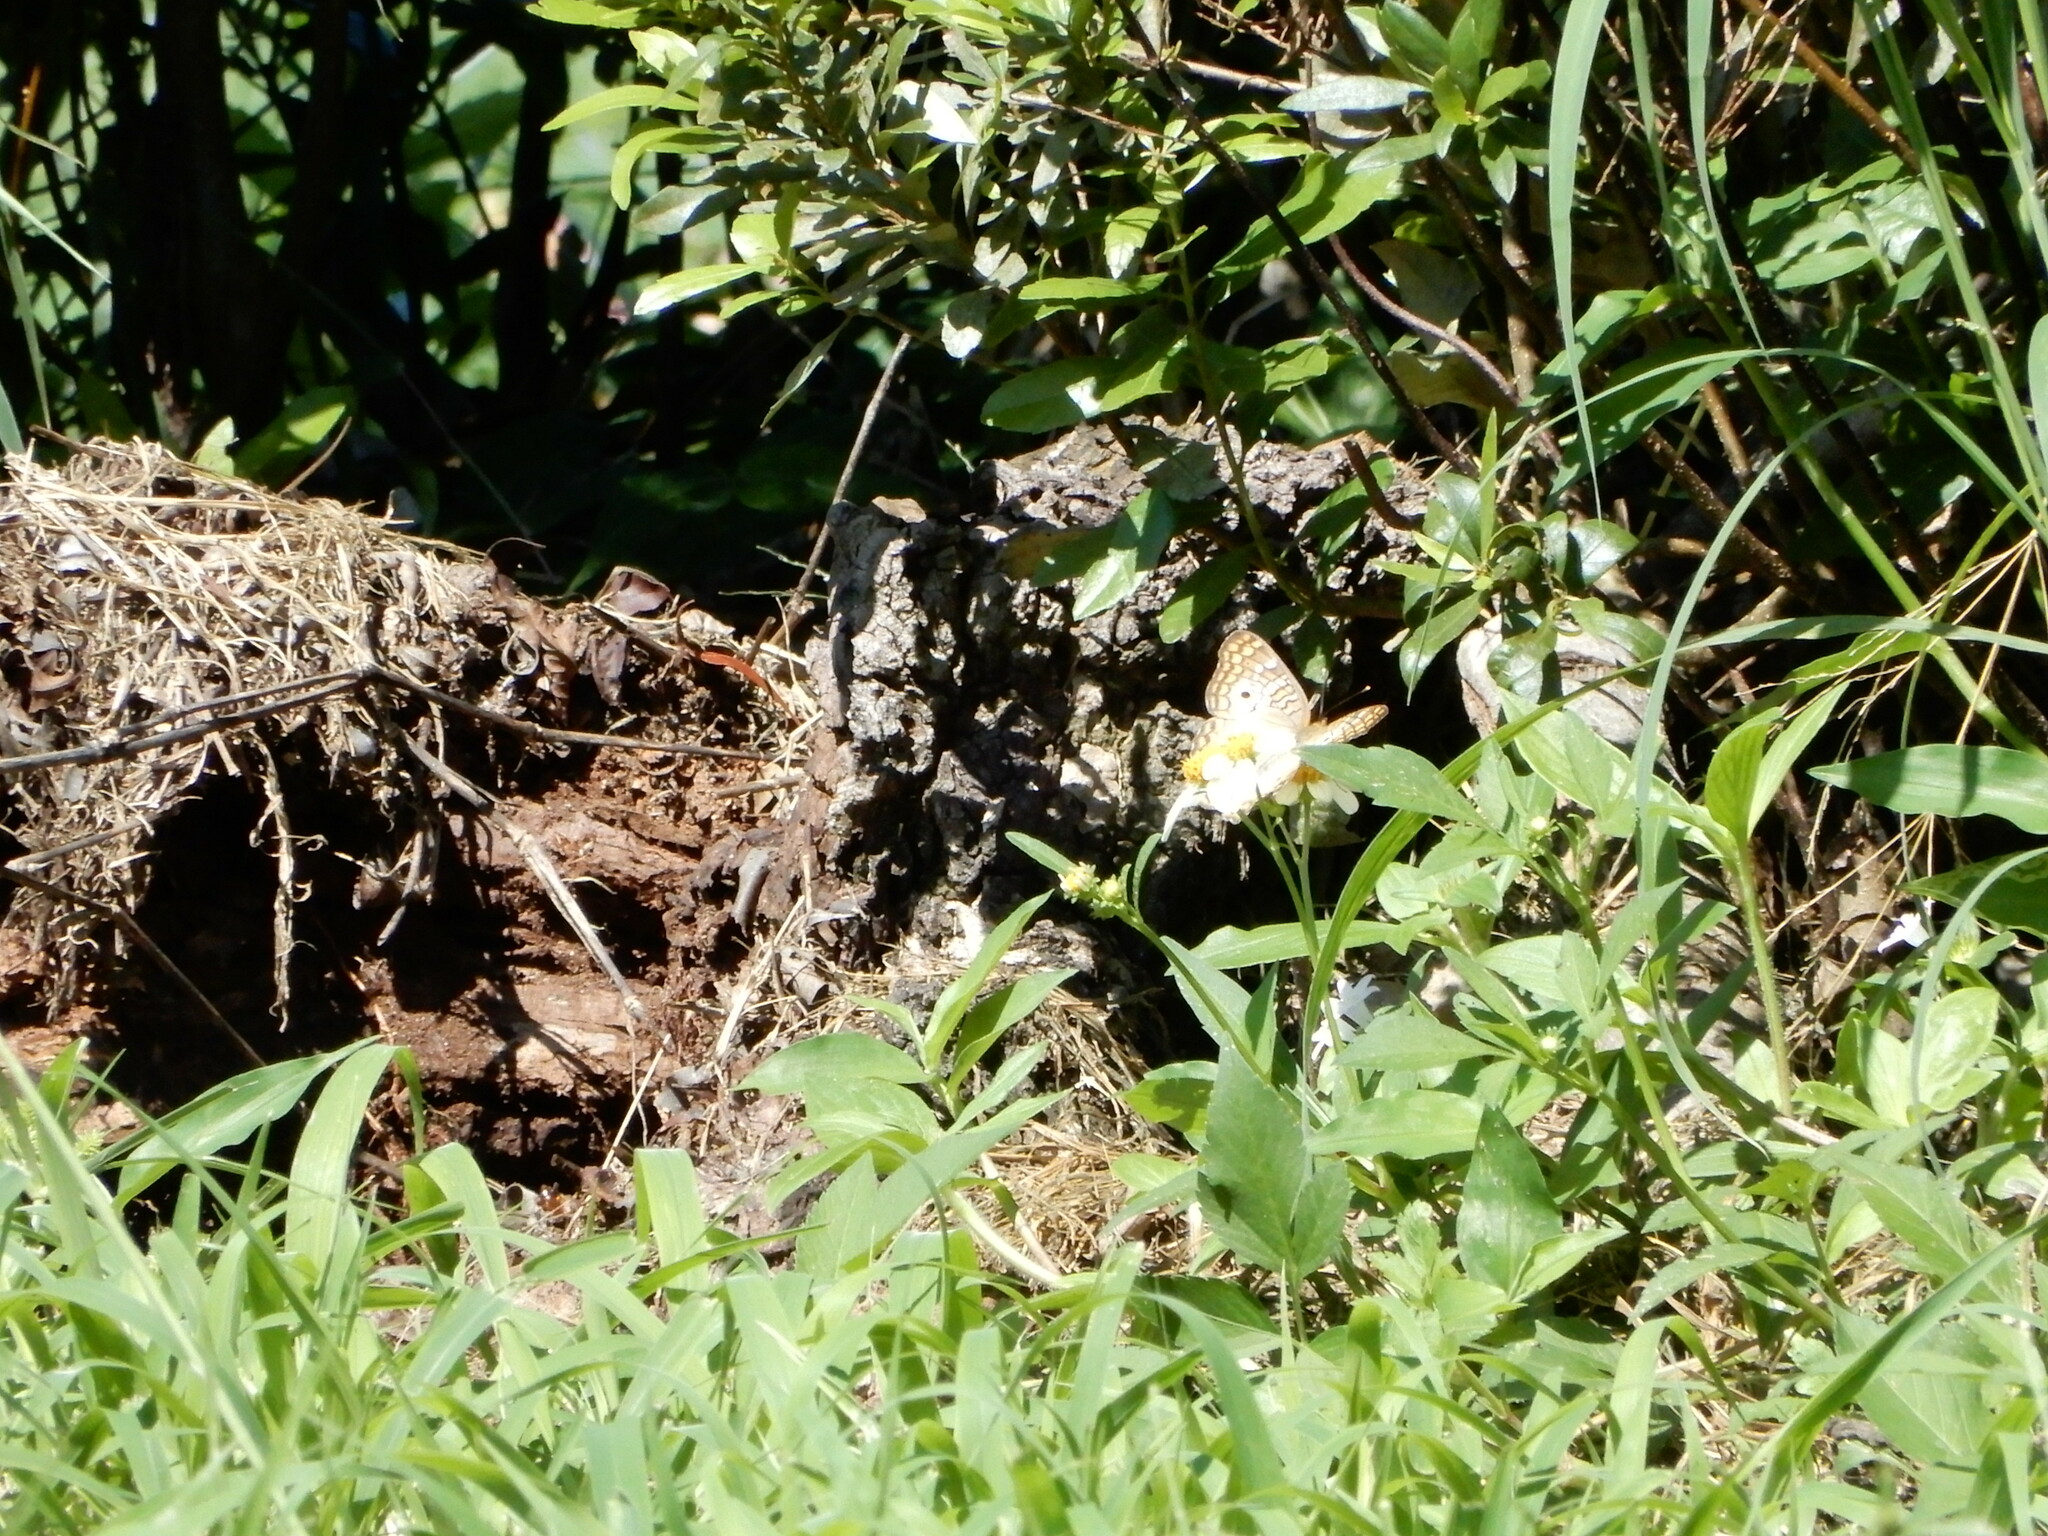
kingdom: Animalia
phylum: Arthropoda
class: Insecta
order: Lepidoptera
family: Nymphalidae
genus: Anartia
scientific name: Anartia jatrophae
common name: White peacock
